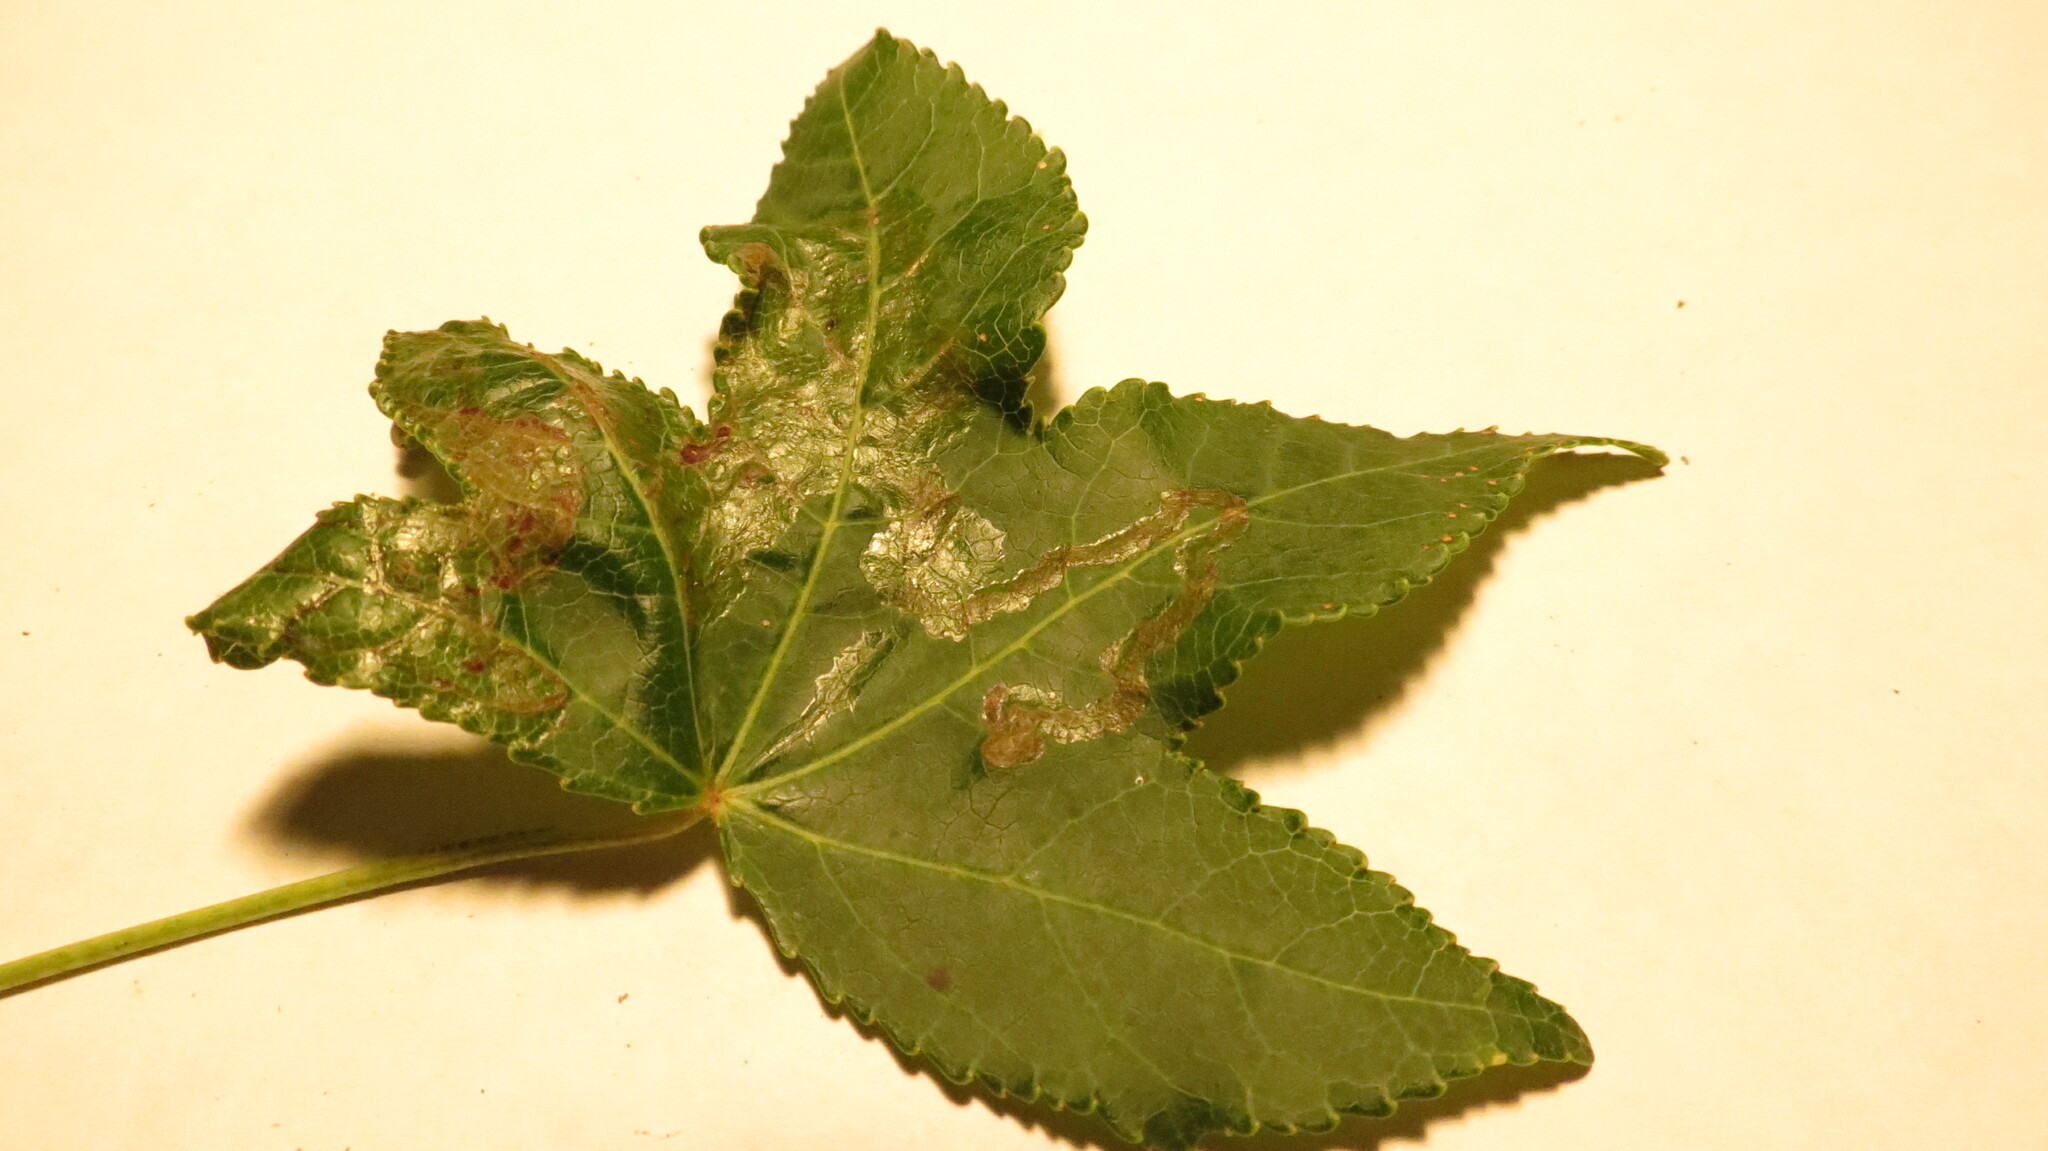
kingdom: Animalia
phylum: Arthropoda
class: Insecta
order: Lepidoptera
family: Gracillariidae
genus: Phyllocnistis
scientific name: Phyllocnistis liquidambarisella
